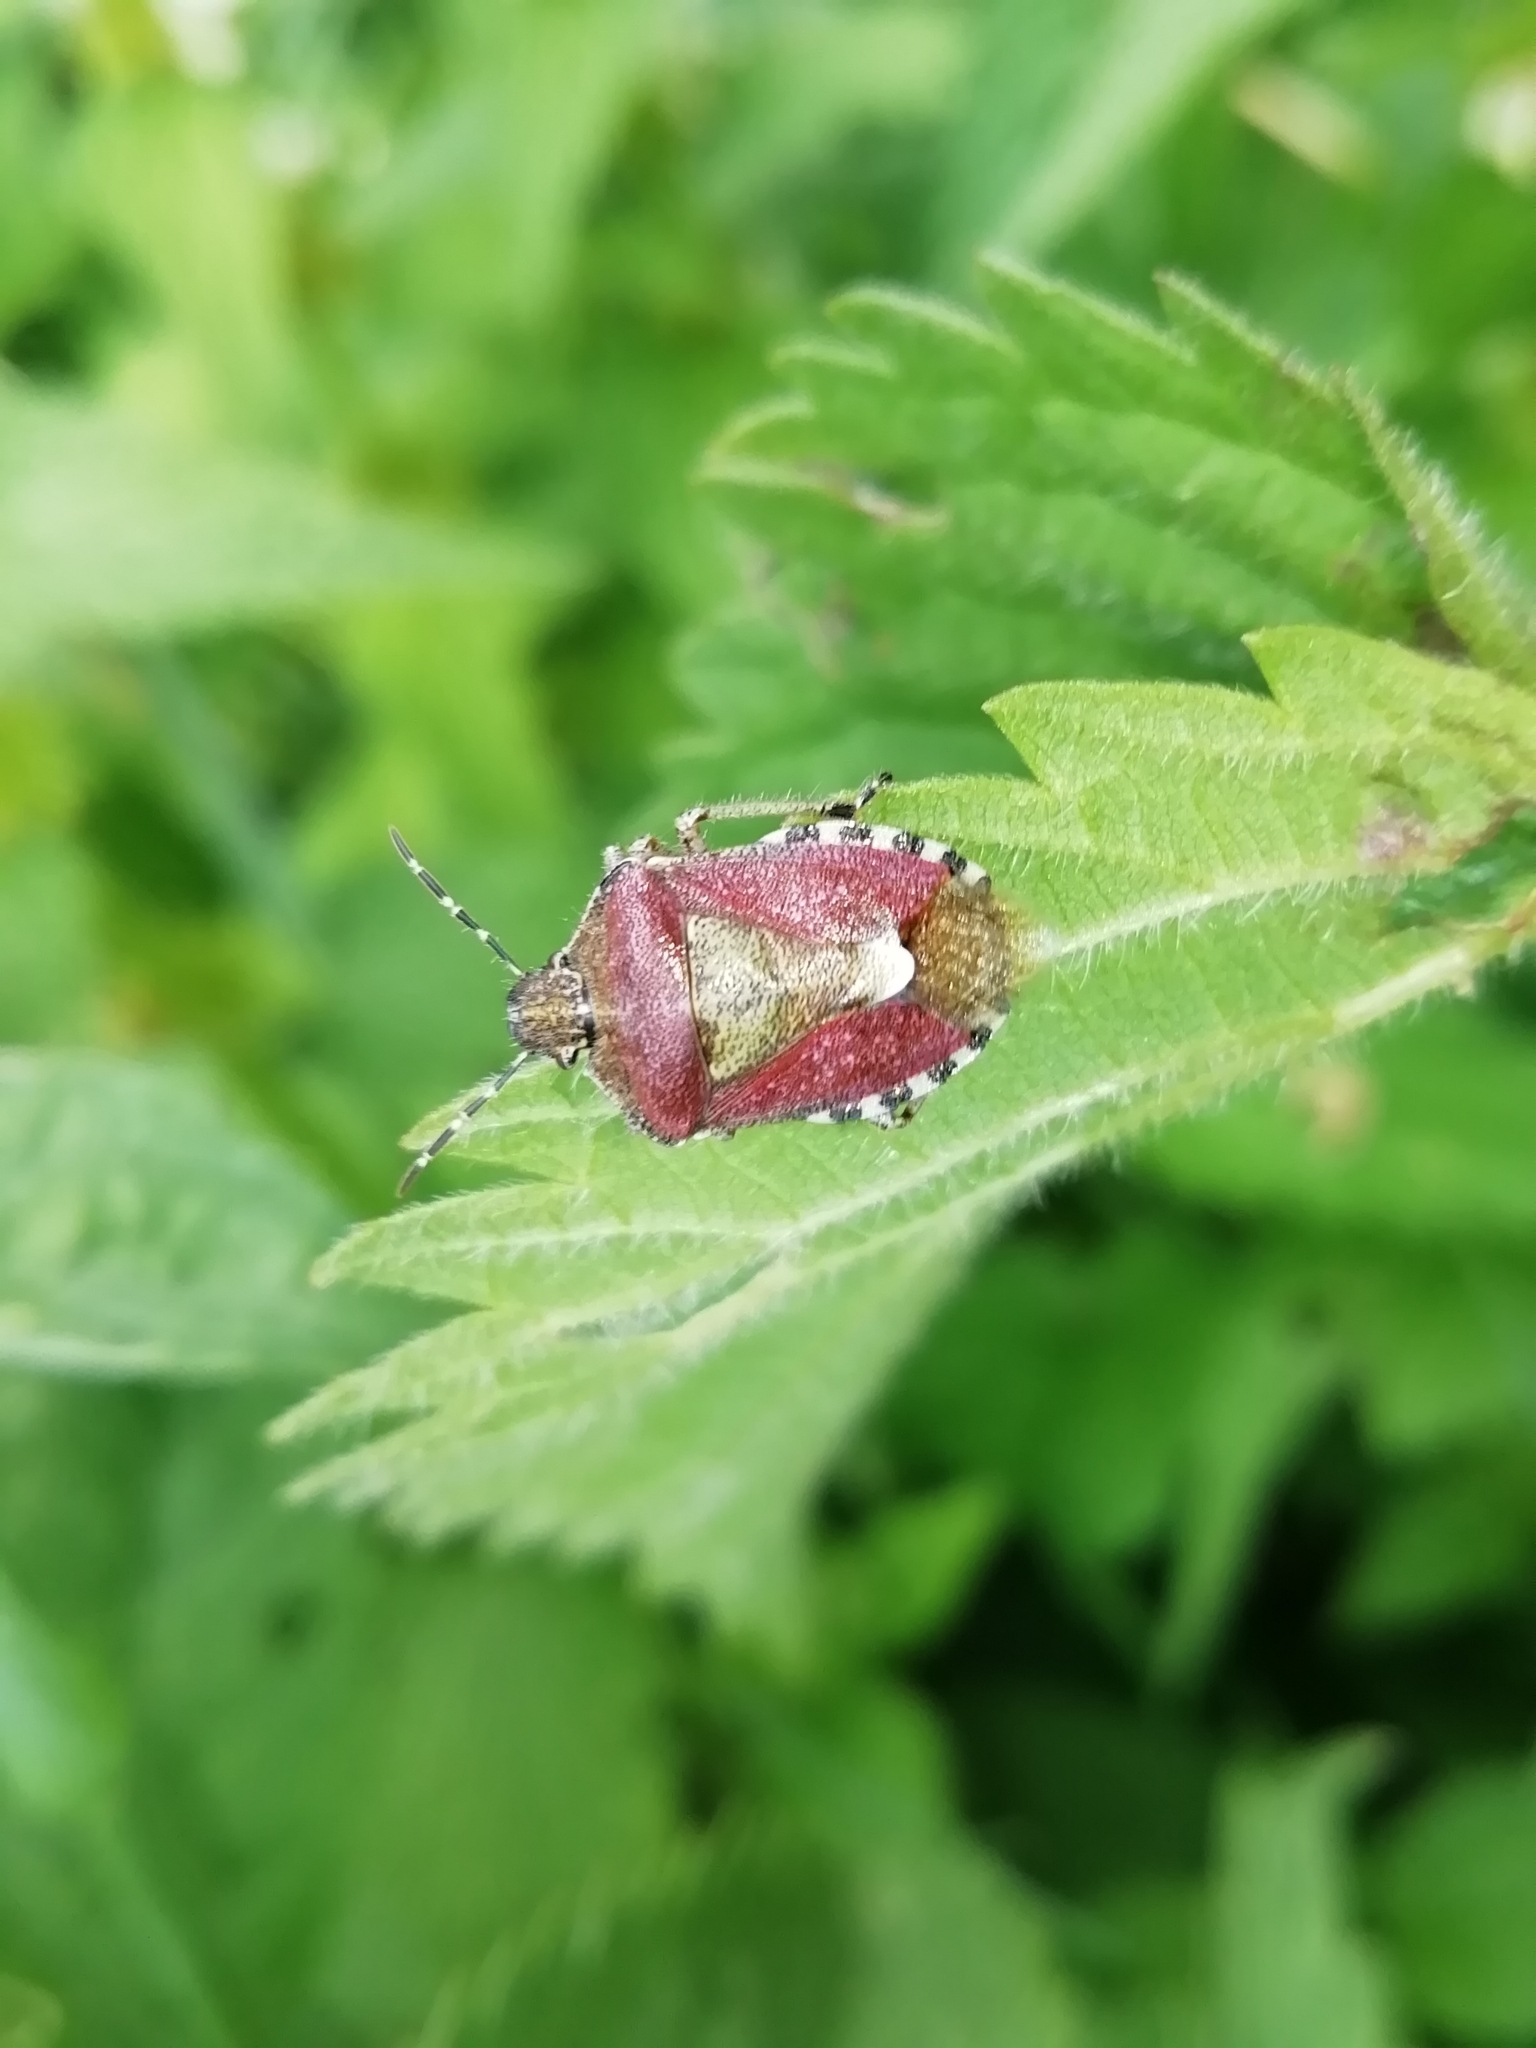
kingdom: Animalia
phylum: Arthropoda
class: Insecta
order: Hemiptera
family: Pentatomidae
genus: Dolycoris
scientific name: Dolycoris baccarum
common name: Sloe bug
